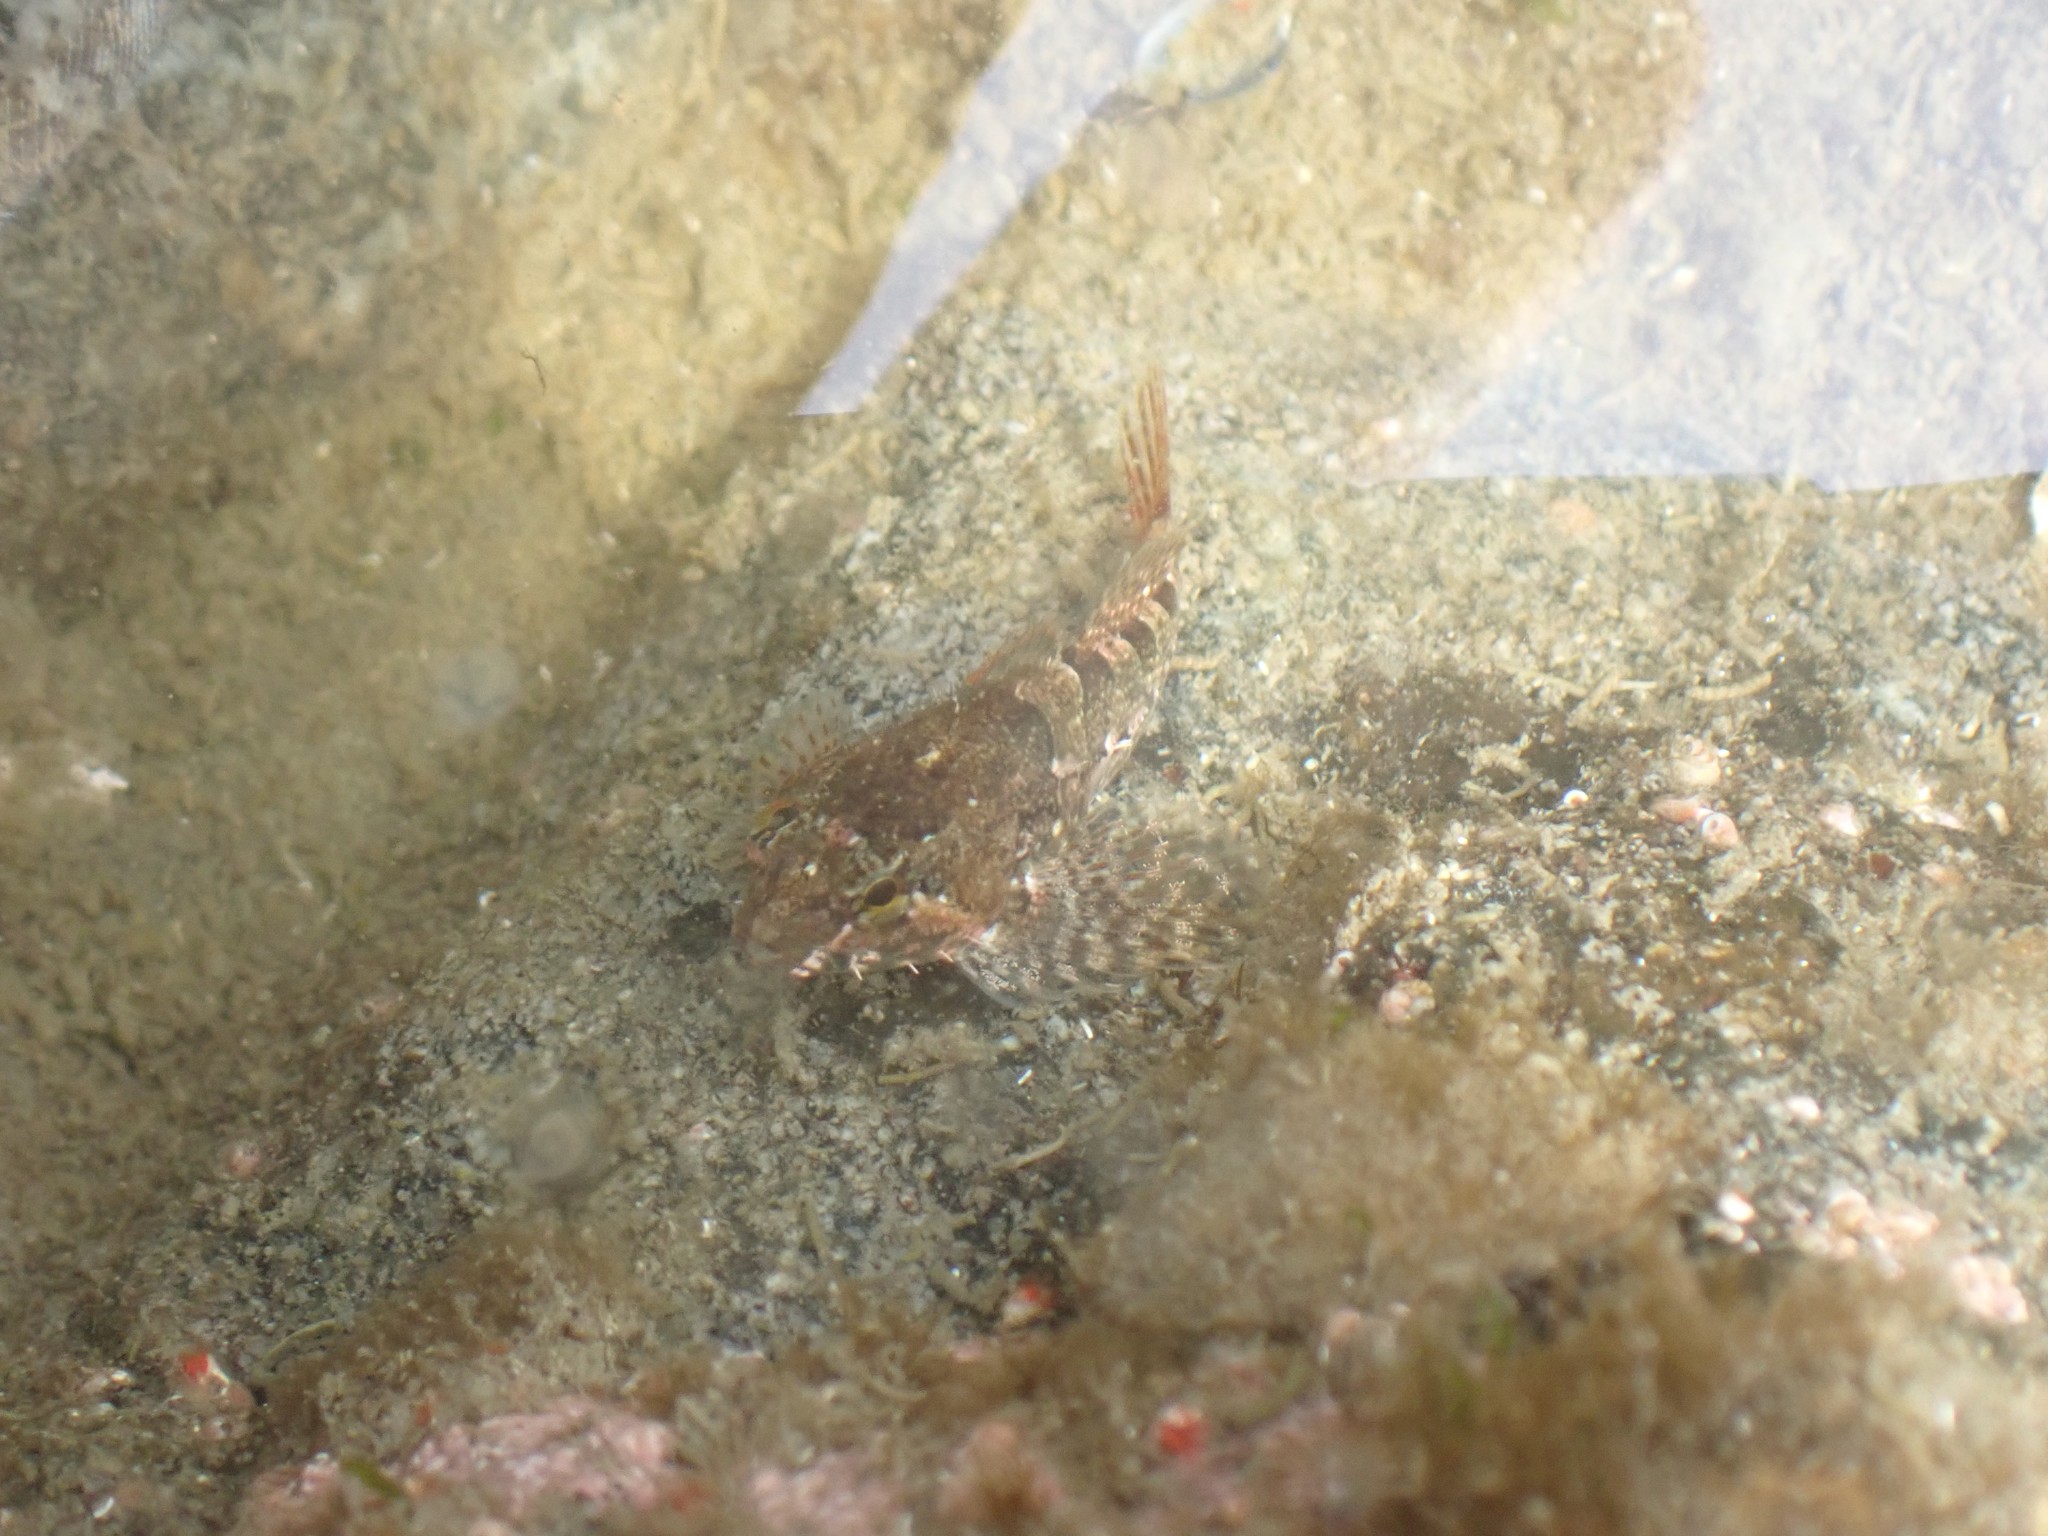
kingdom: Animalia
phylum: Chordata
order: Scorpaeniformes
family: Cottidae
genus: Oligocottus
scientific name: Oligocottus maculosus
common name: Tidepool sculpin
